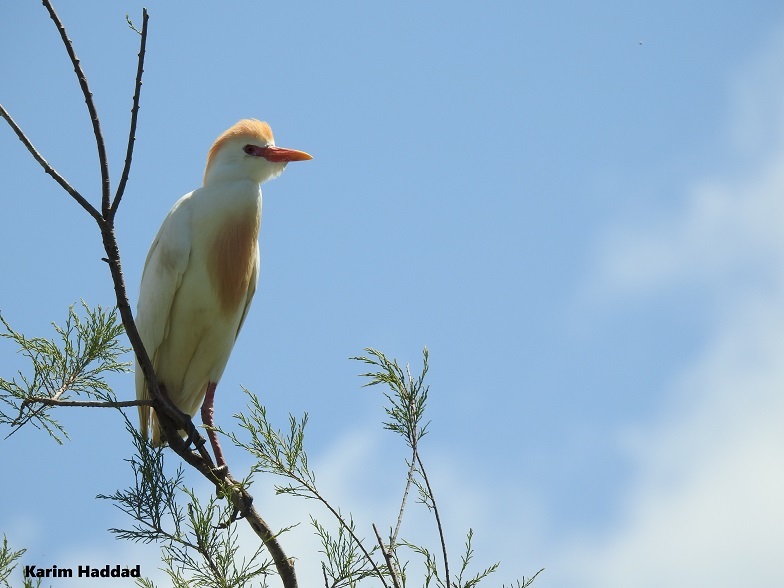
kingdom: Animalia
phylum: Chordata
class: Aves
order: Pelecaniformes
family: Ardeidae
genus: Bubulcus
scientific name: Bubulcus ibis
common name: Cattle egret
